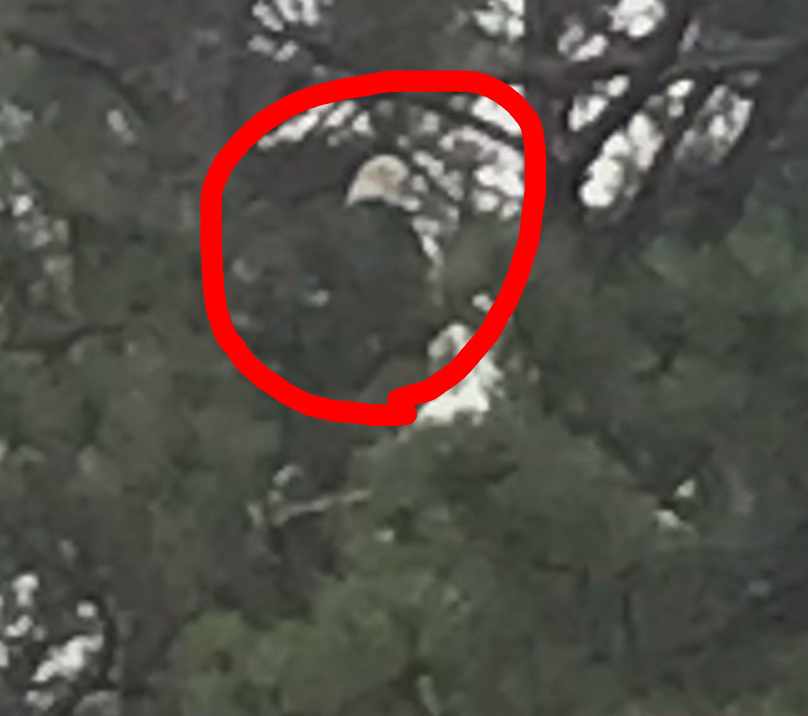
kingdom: Animalia
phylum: Chordata
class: Aves
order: Accipitriformes
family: Accipitridae
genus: Haliaeetus
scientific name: Haliaeetus leucocephalus
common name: Bald eagle
